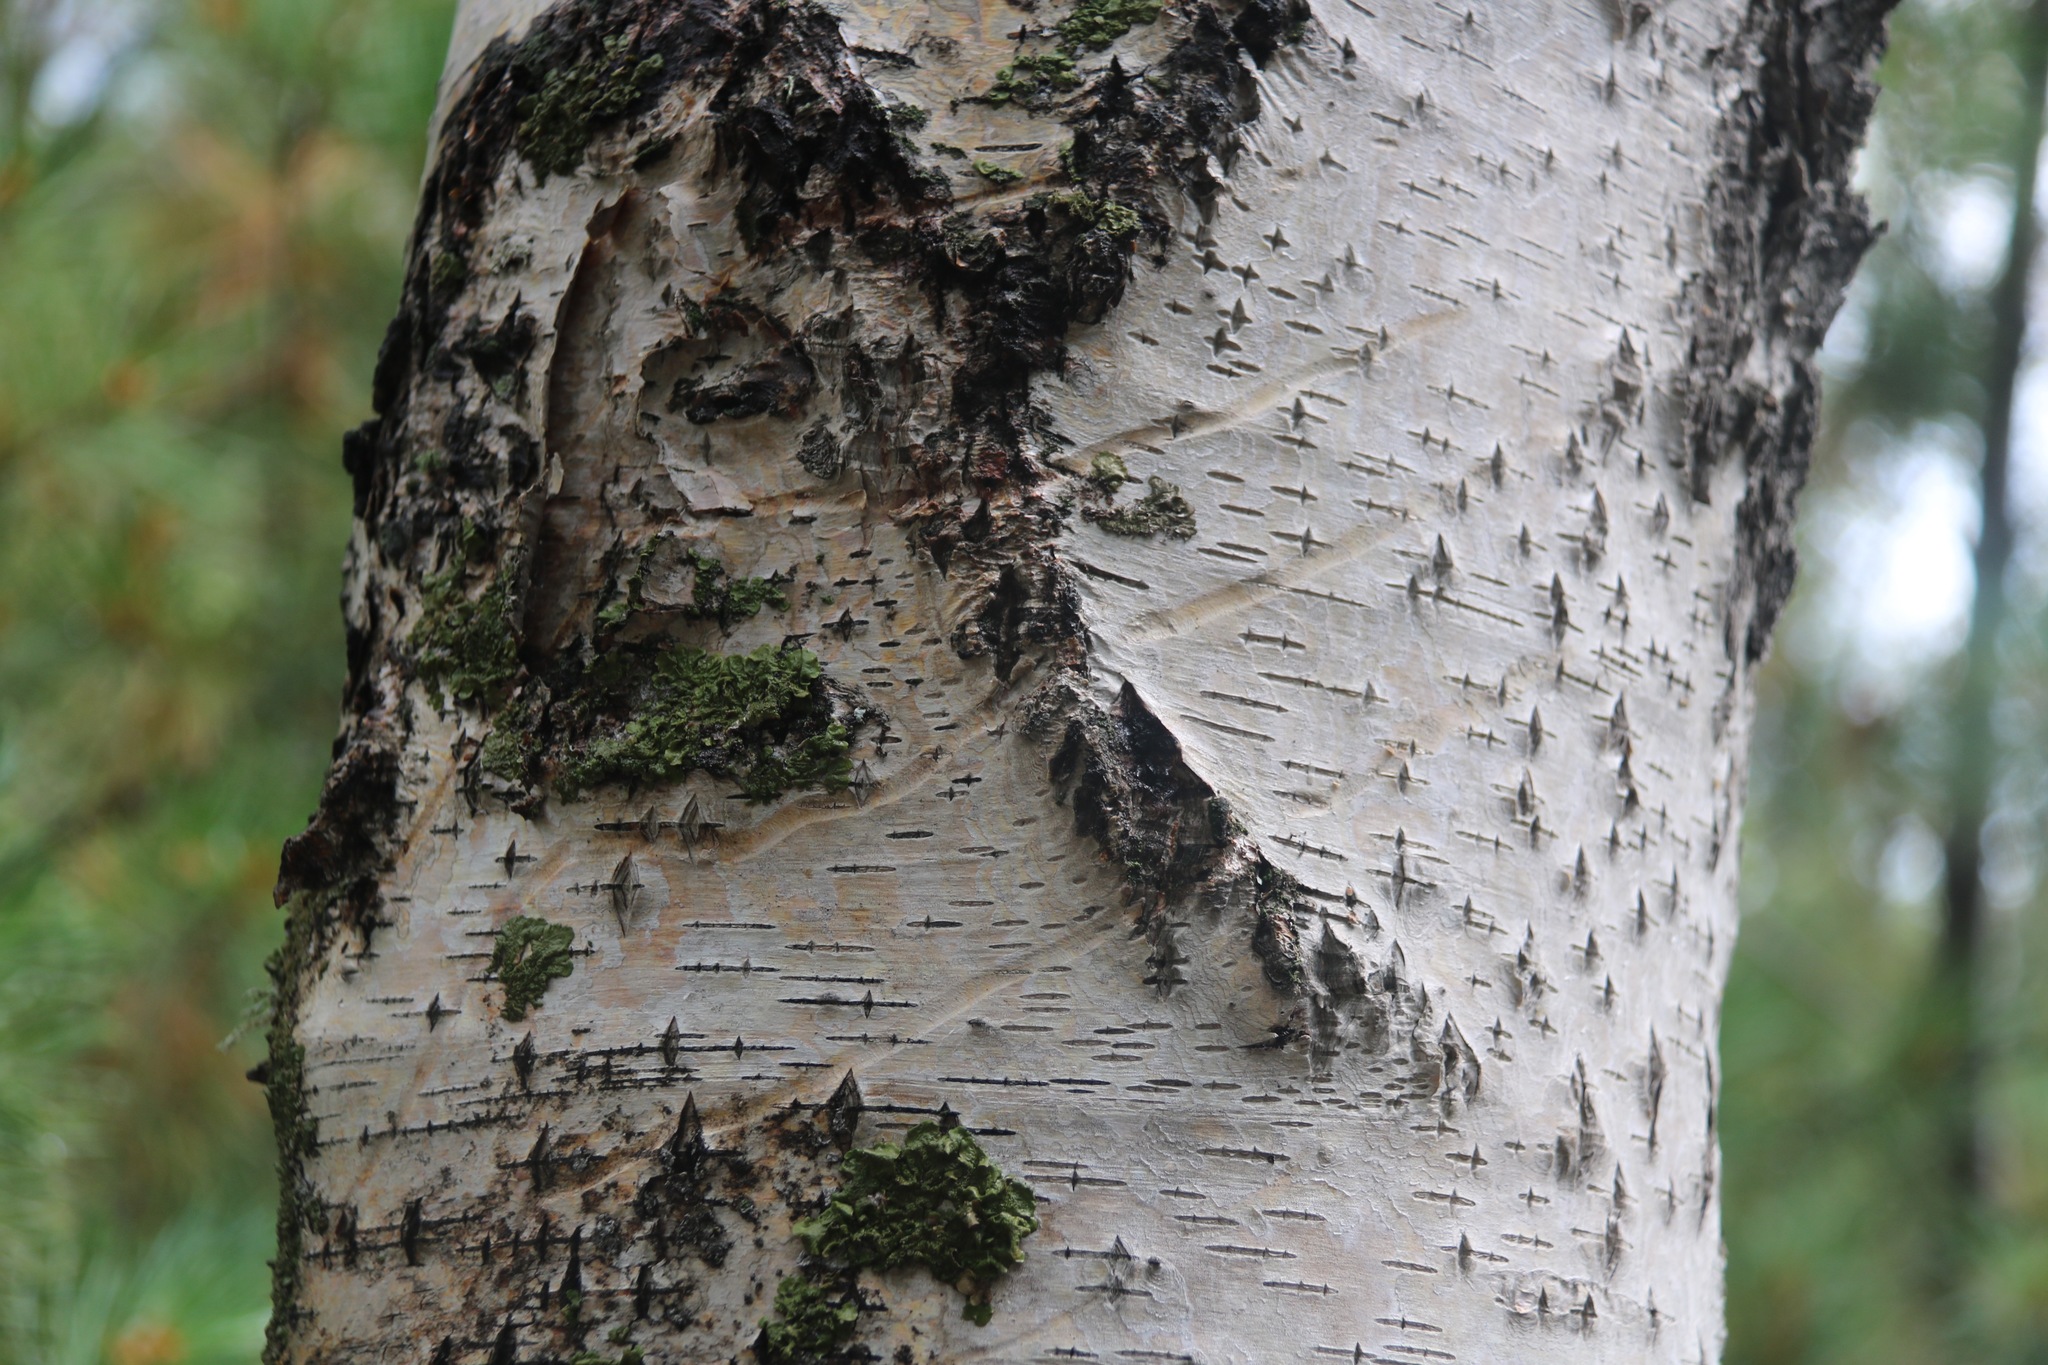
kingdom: Animalia
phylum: Chordata
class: Mammalia
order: Carnivora
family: Ursidae
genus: Ursus
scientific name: Ursus arctos
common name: Brown bear
